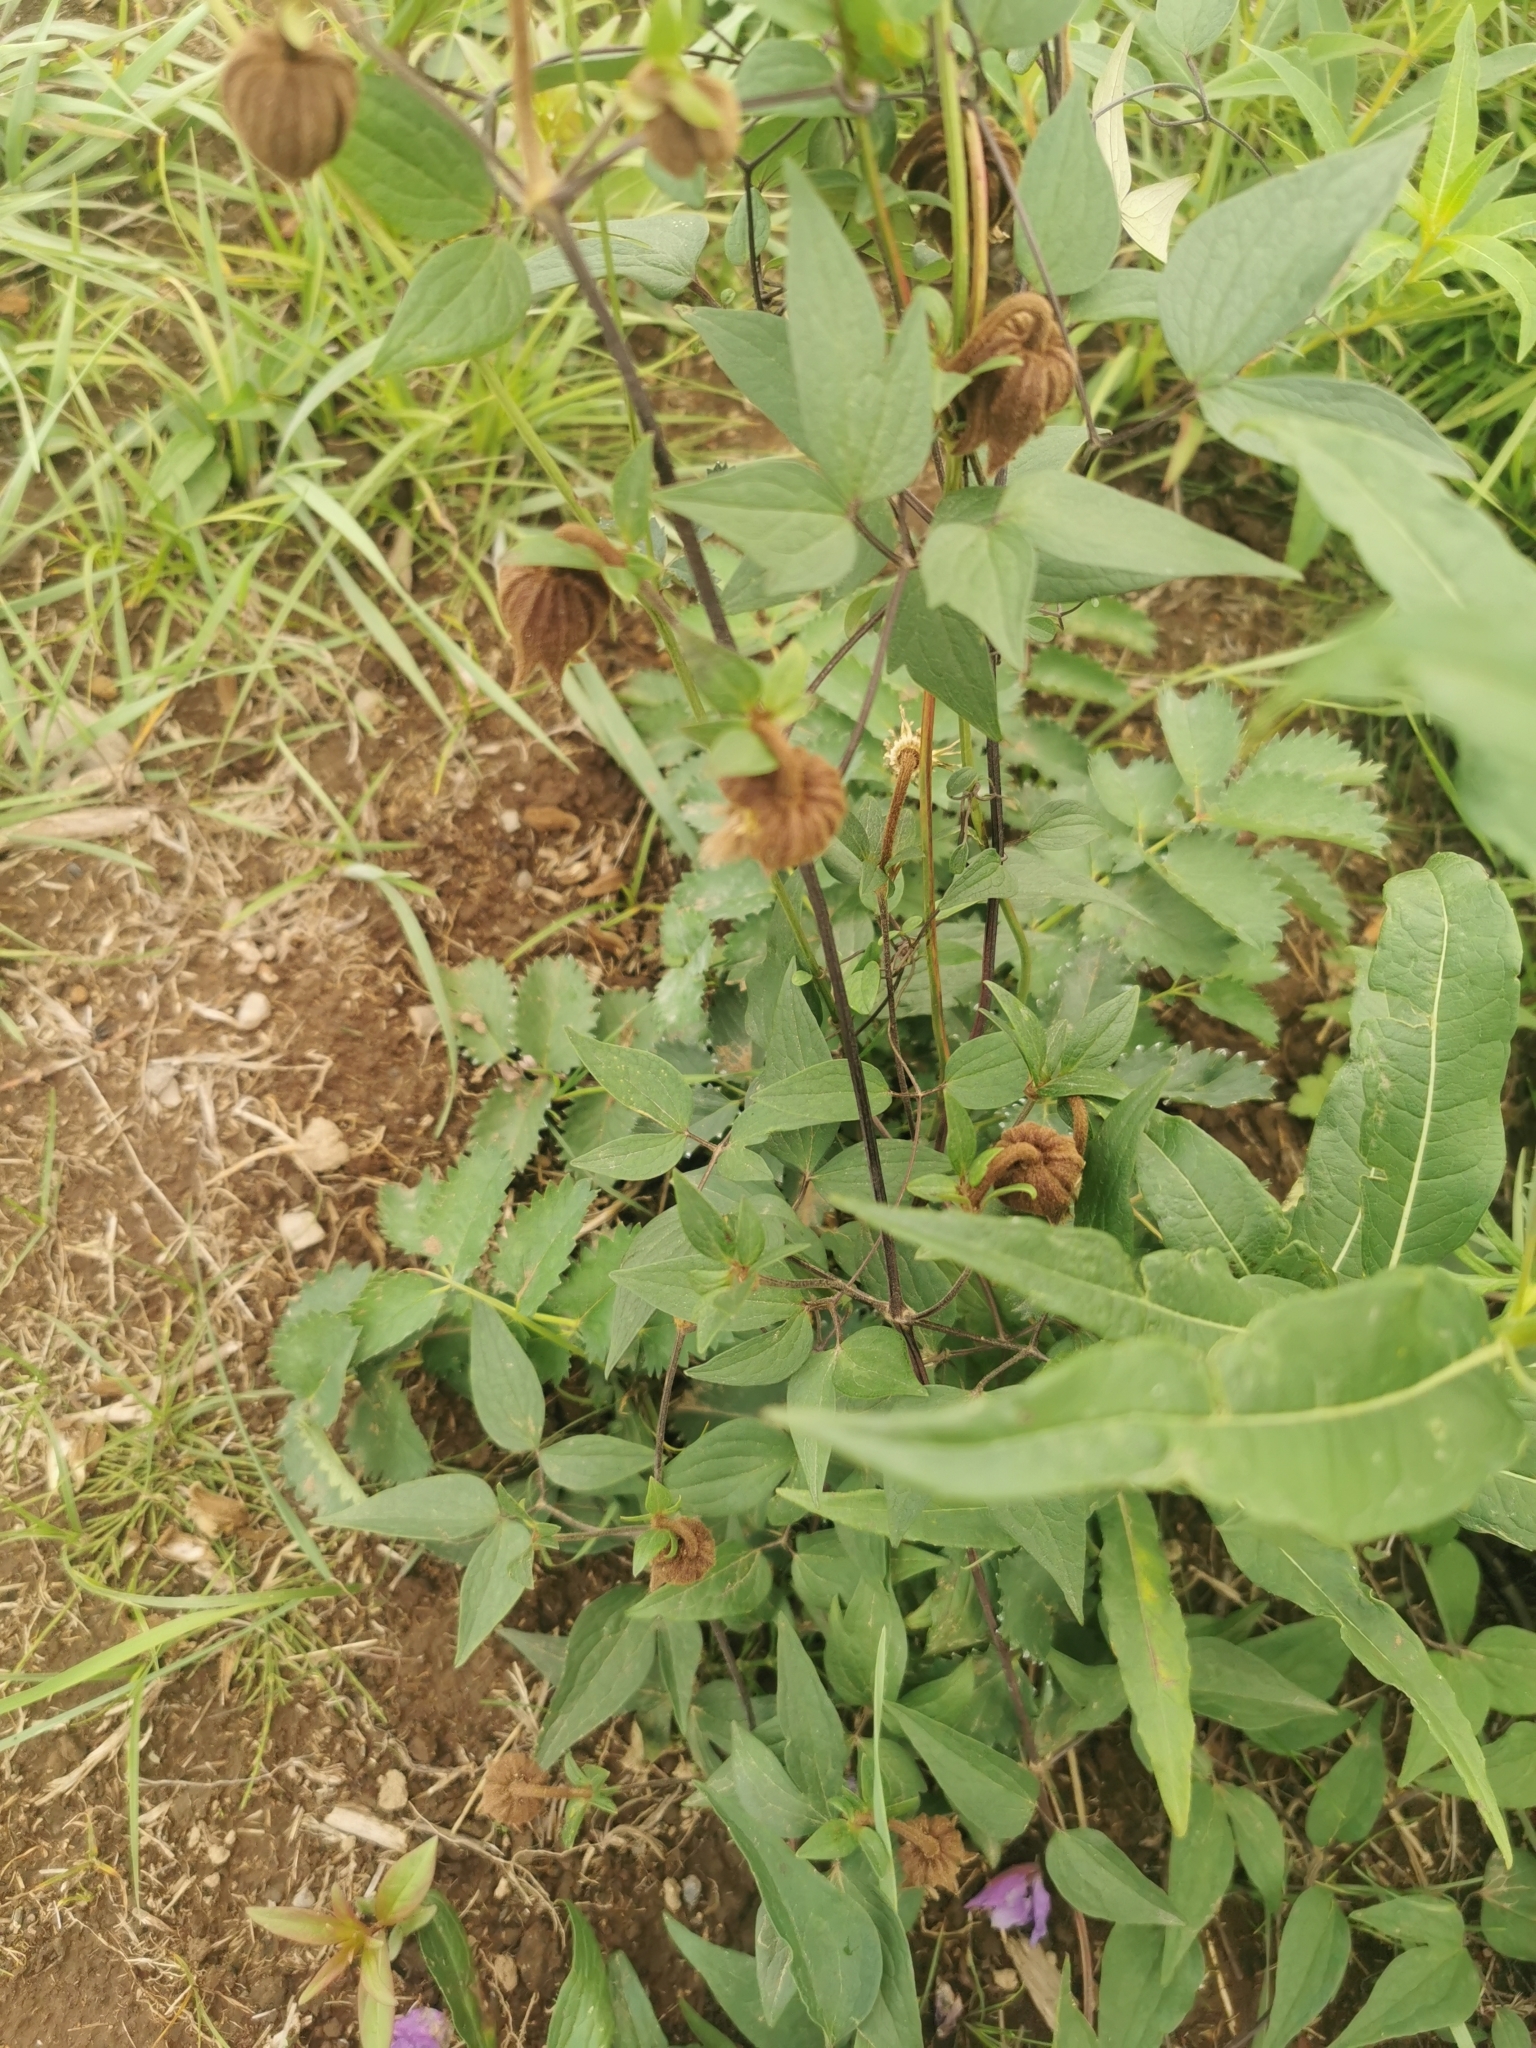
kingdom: Plantae
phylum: Tracheophyta
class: Magnoliopsida
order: Ranunculales
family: Ranunculaceae
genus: Clematis
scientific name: Clematis fusca
